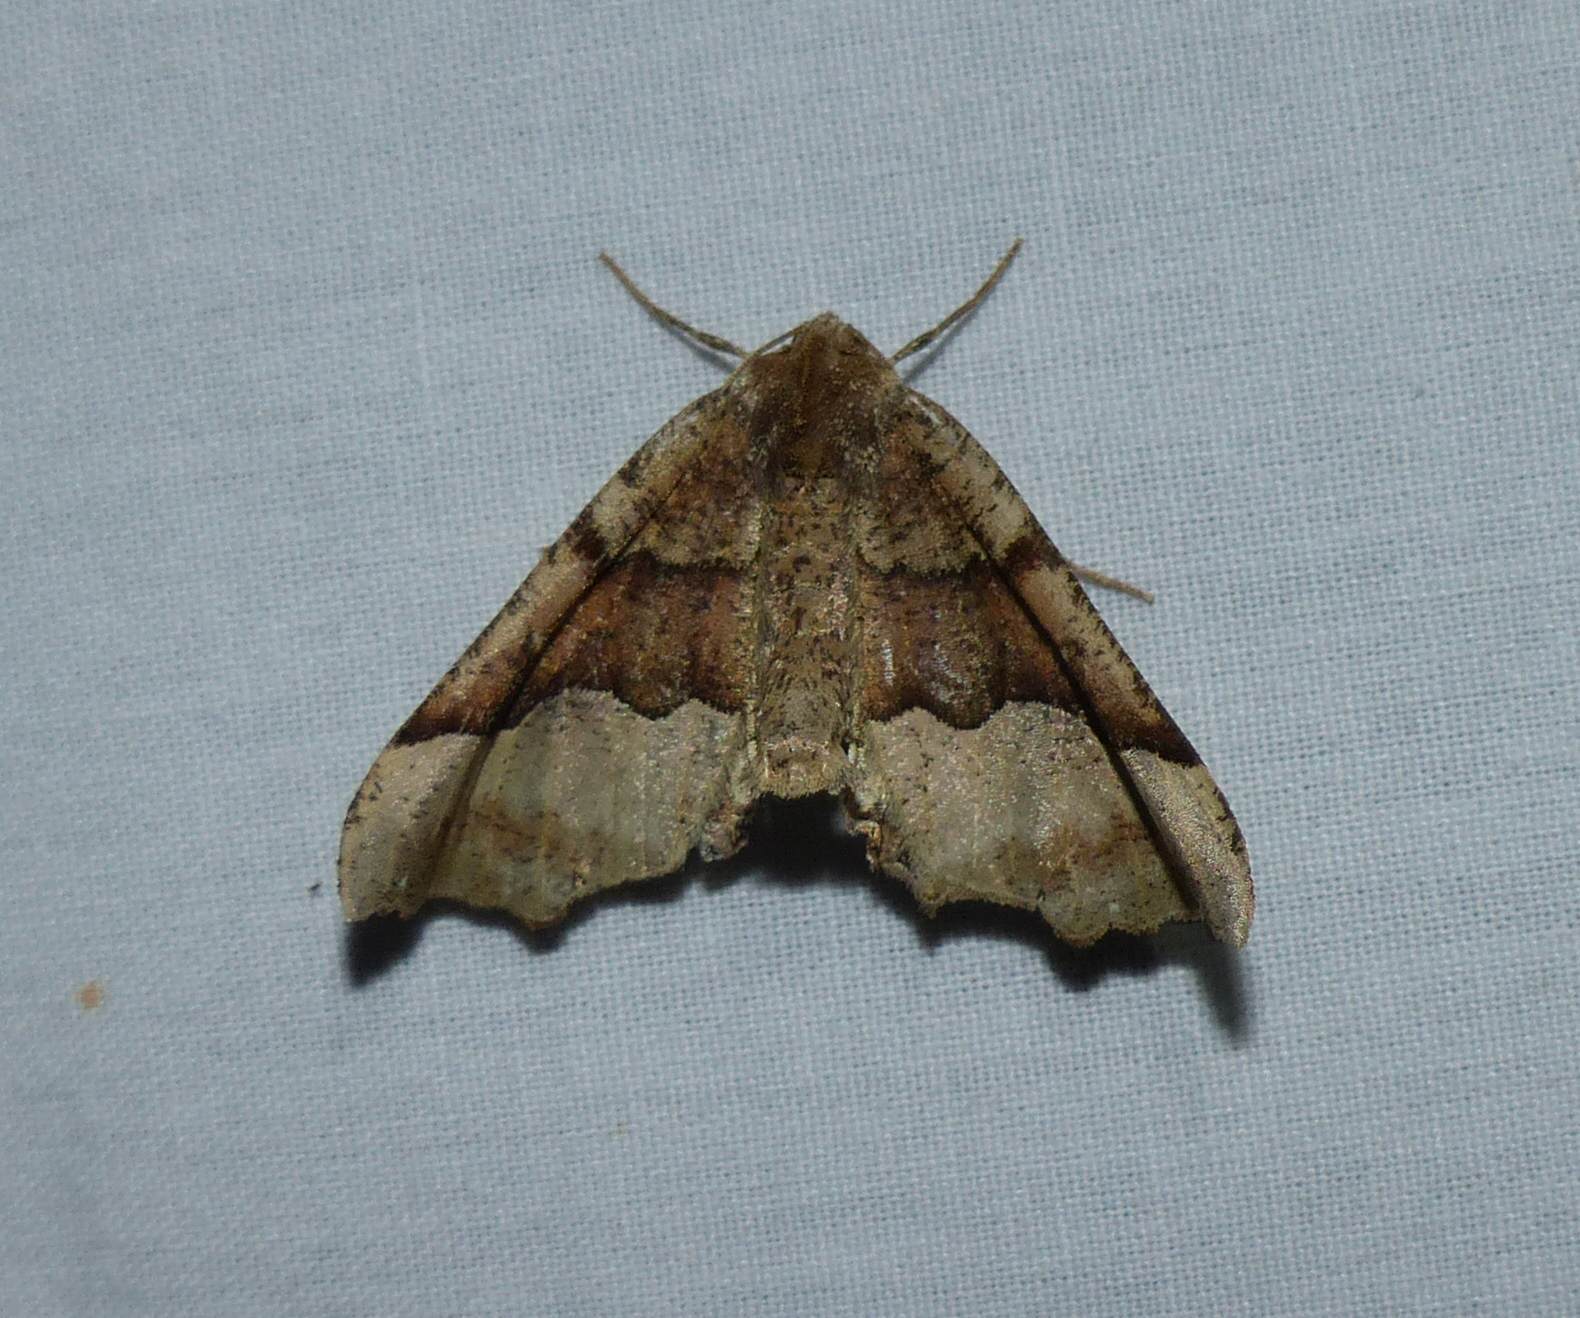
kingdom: Animalia
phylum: Arthropoda
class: Insecta
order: Lepidoptera
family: Geometridae
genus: Pero
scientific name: Pero morrisonaria
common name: Morrison's pero
